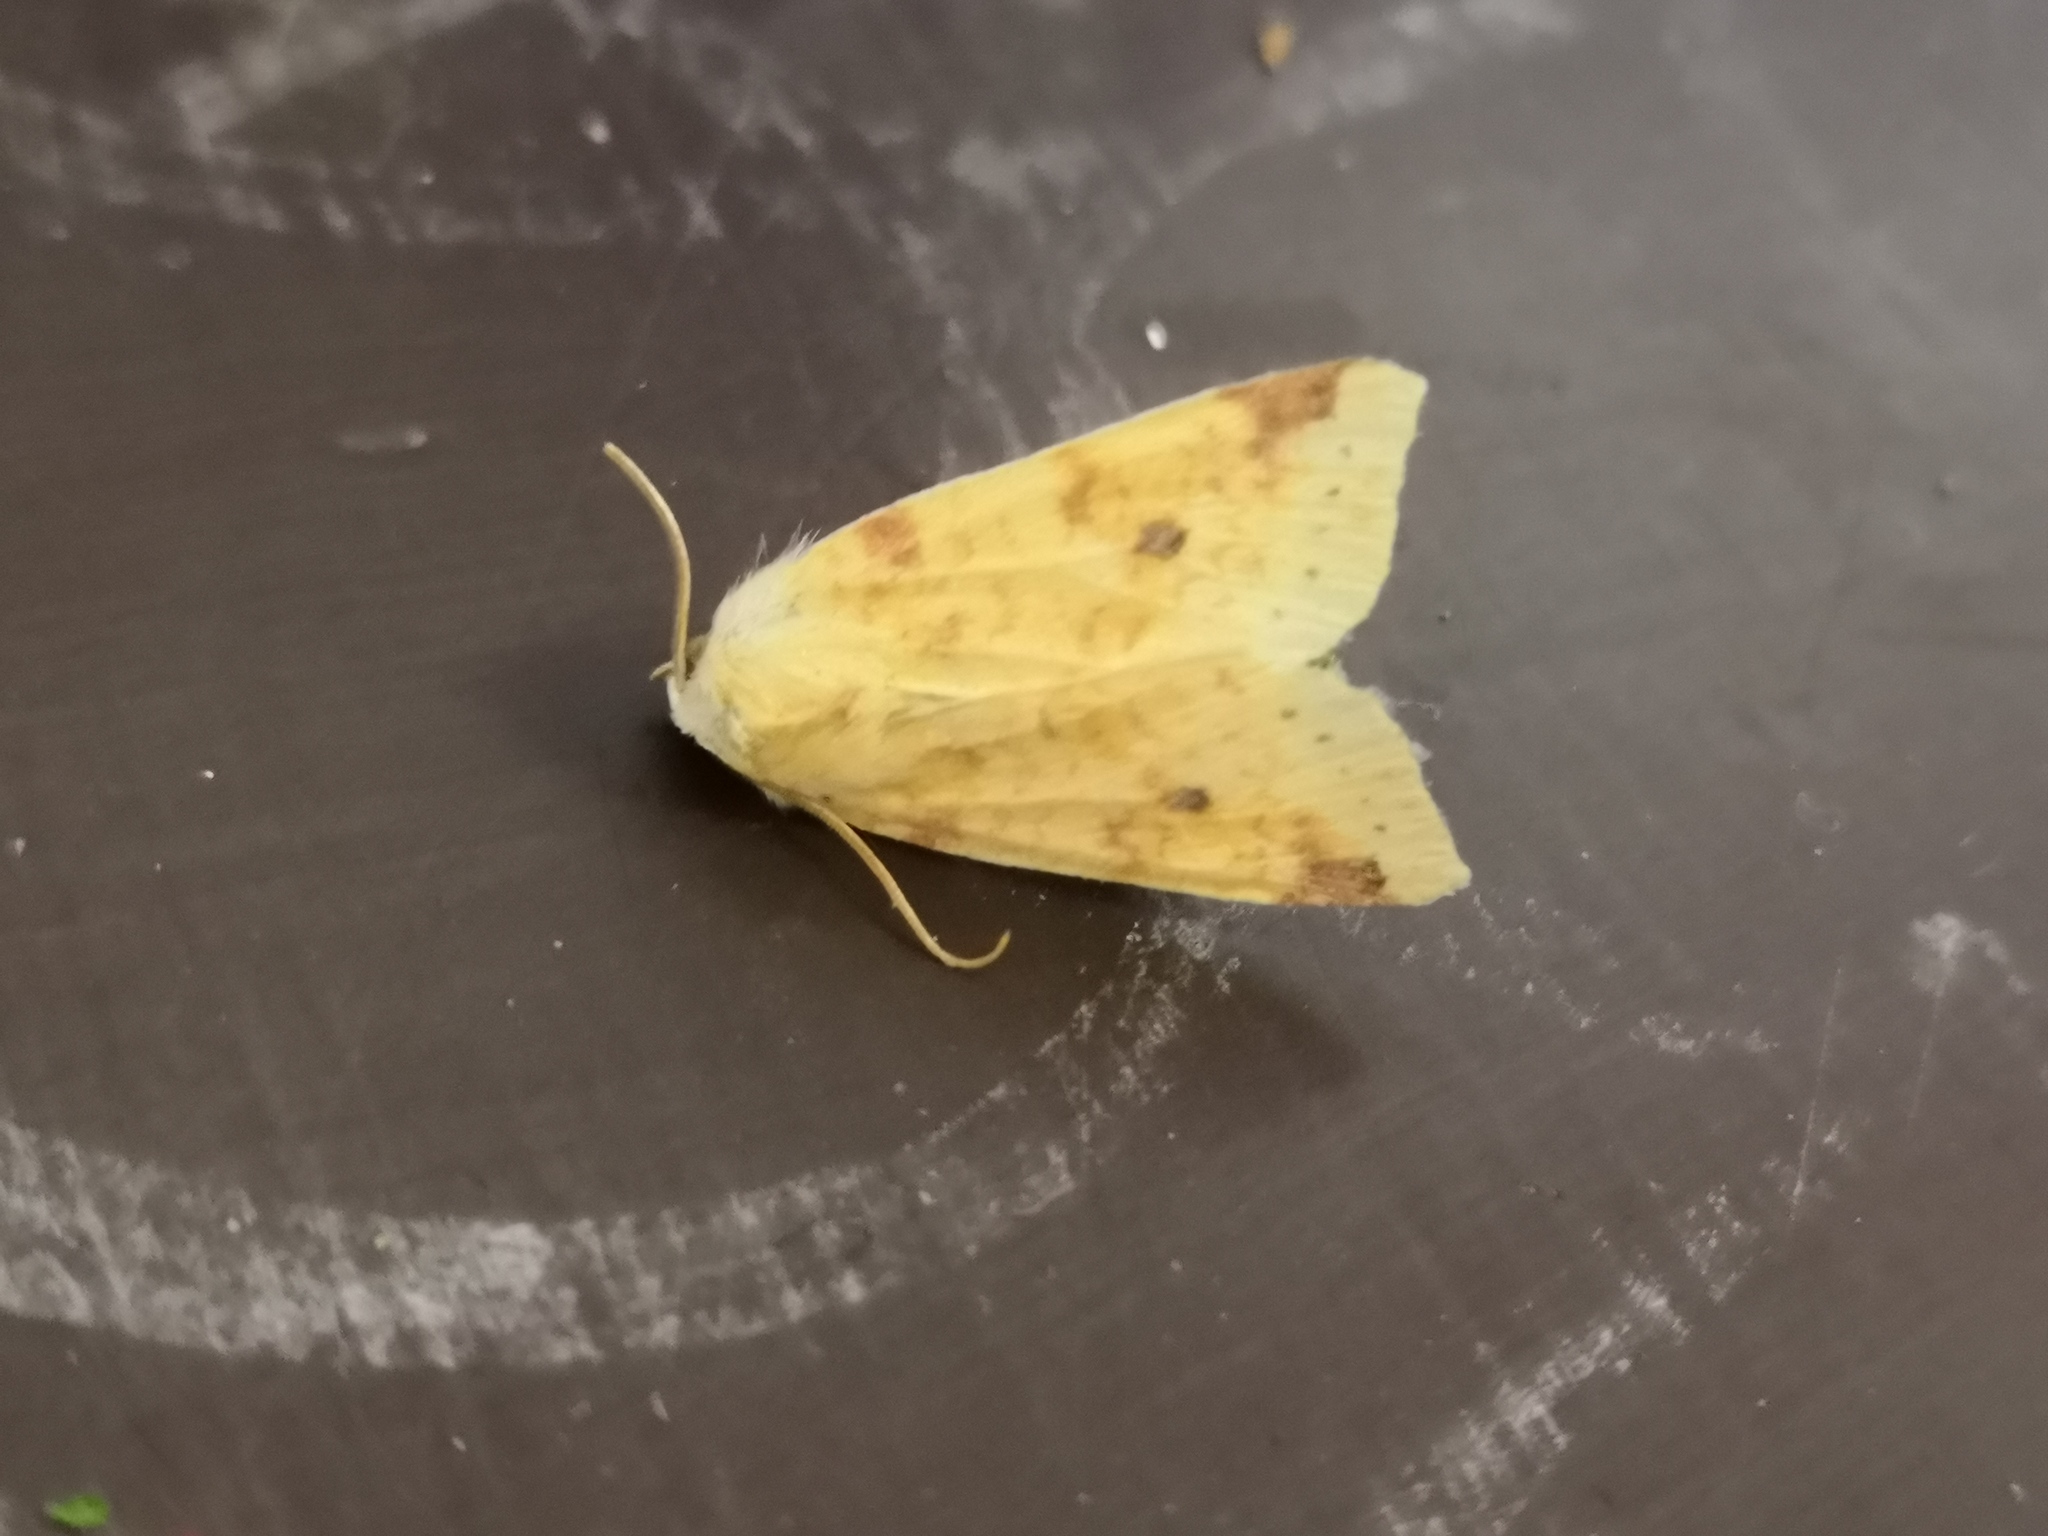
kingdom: Animalia
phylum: Arthropoda
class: Insecta
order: Lepidoptera
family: Noctuidae
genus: Xanthia
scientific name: Xanthia icteritia
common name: The sallow
